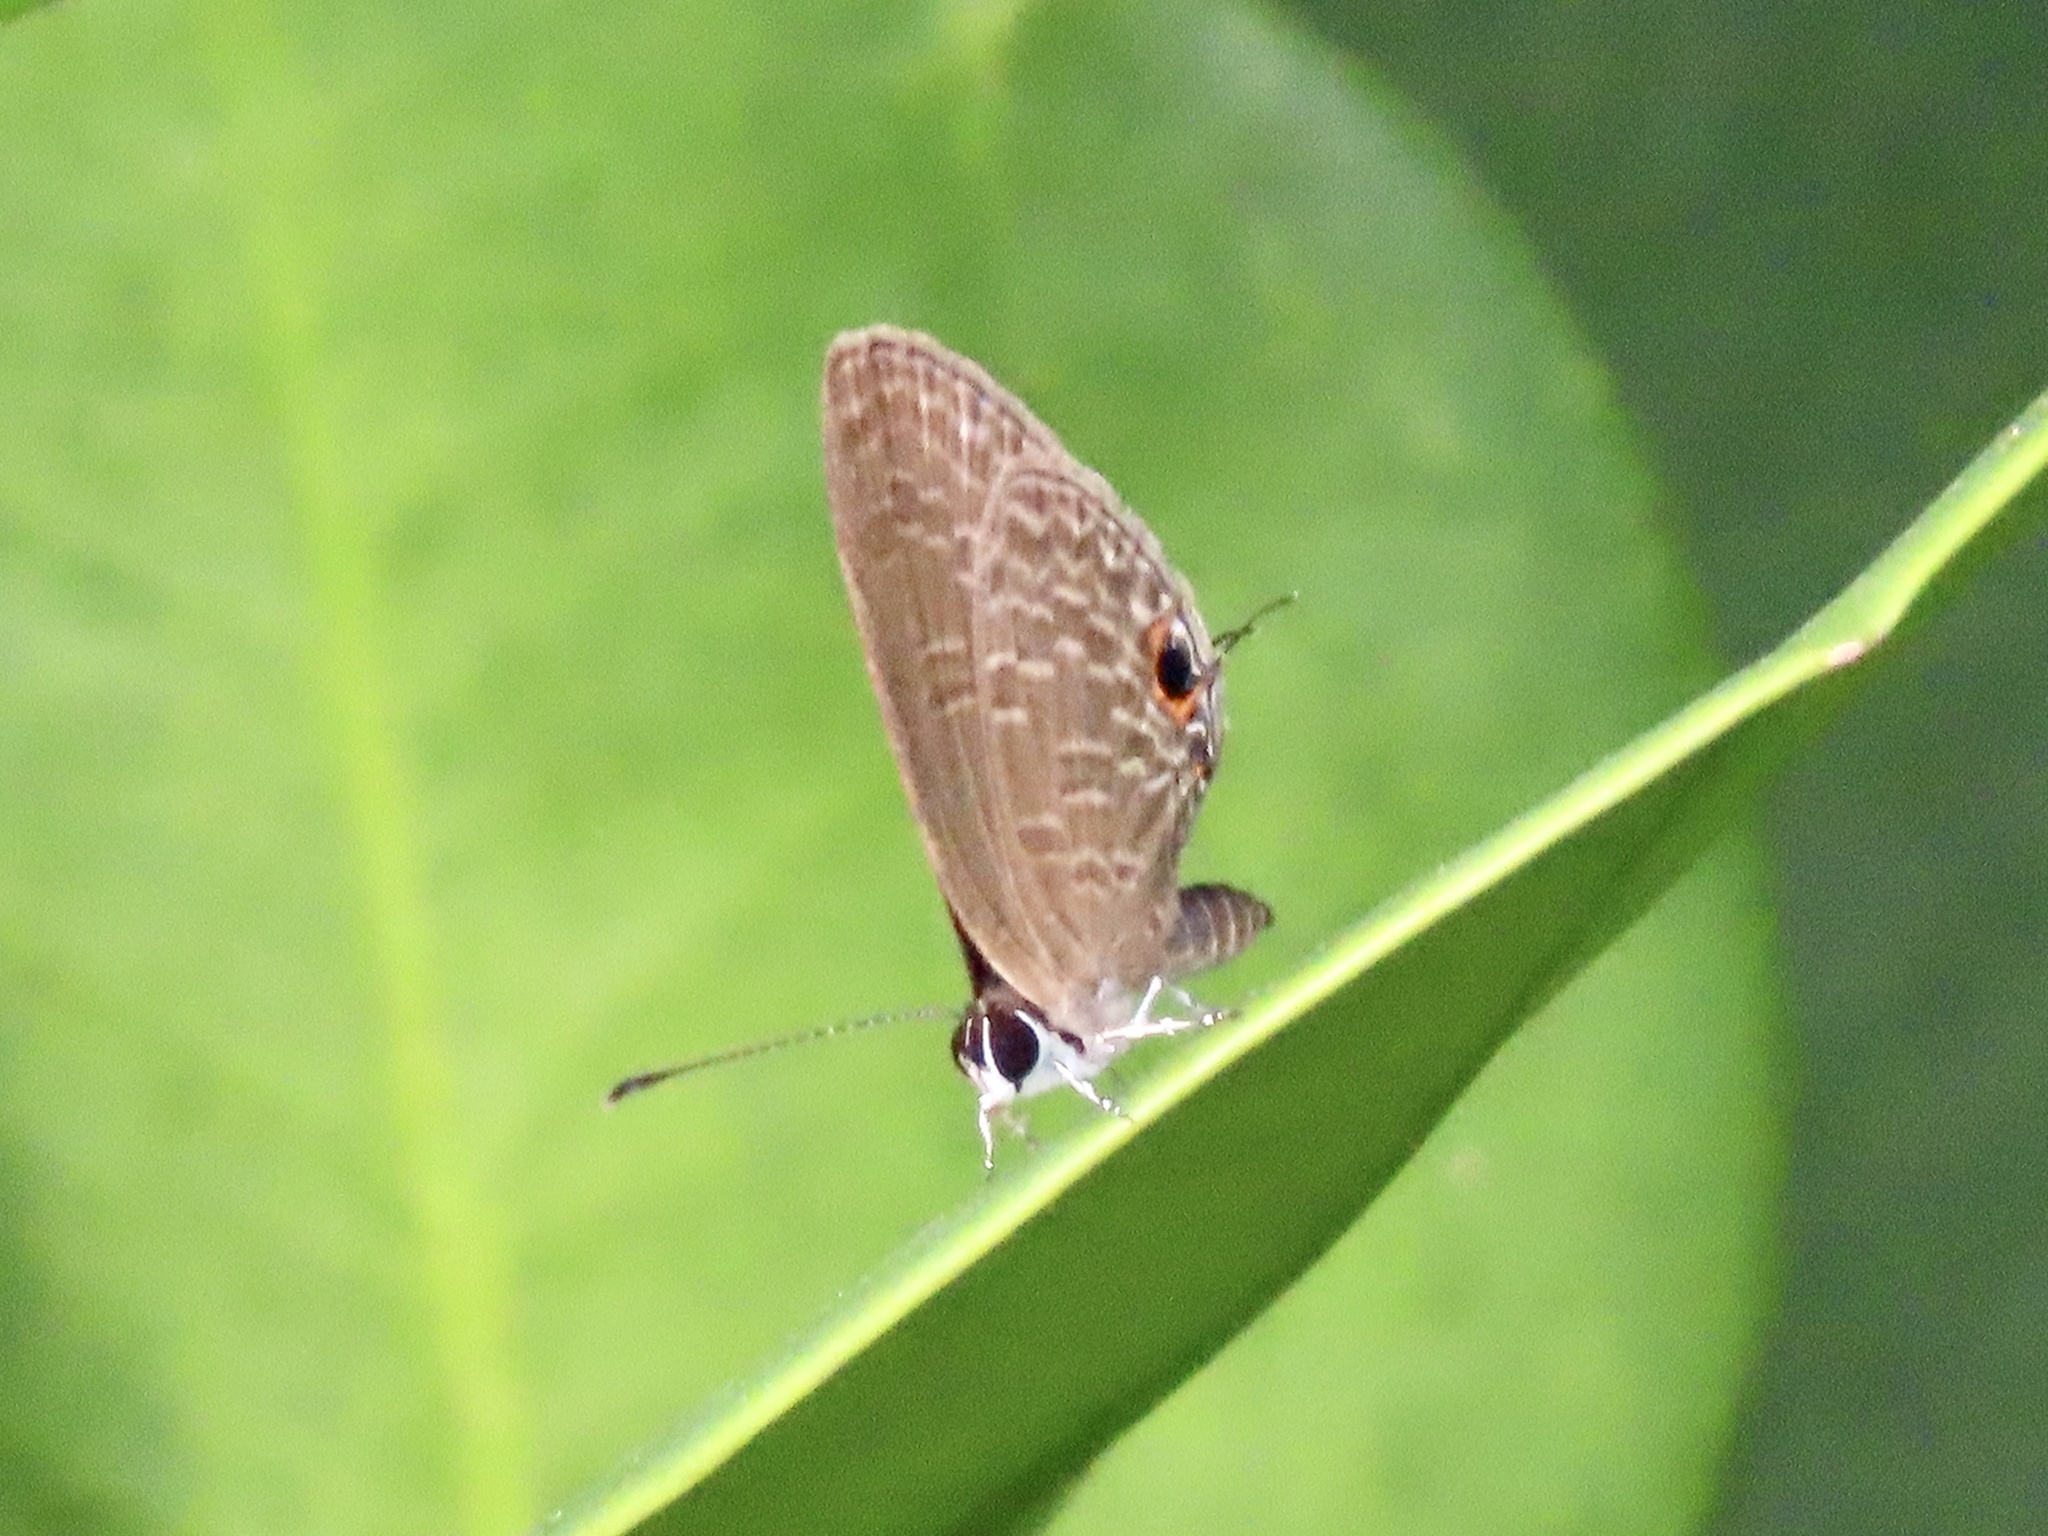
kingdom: Animalia
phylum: Arthropoda
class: Insecta
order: Lepidoptera
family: Lycaenidae
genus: Jamides
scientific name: Jamides bochus
